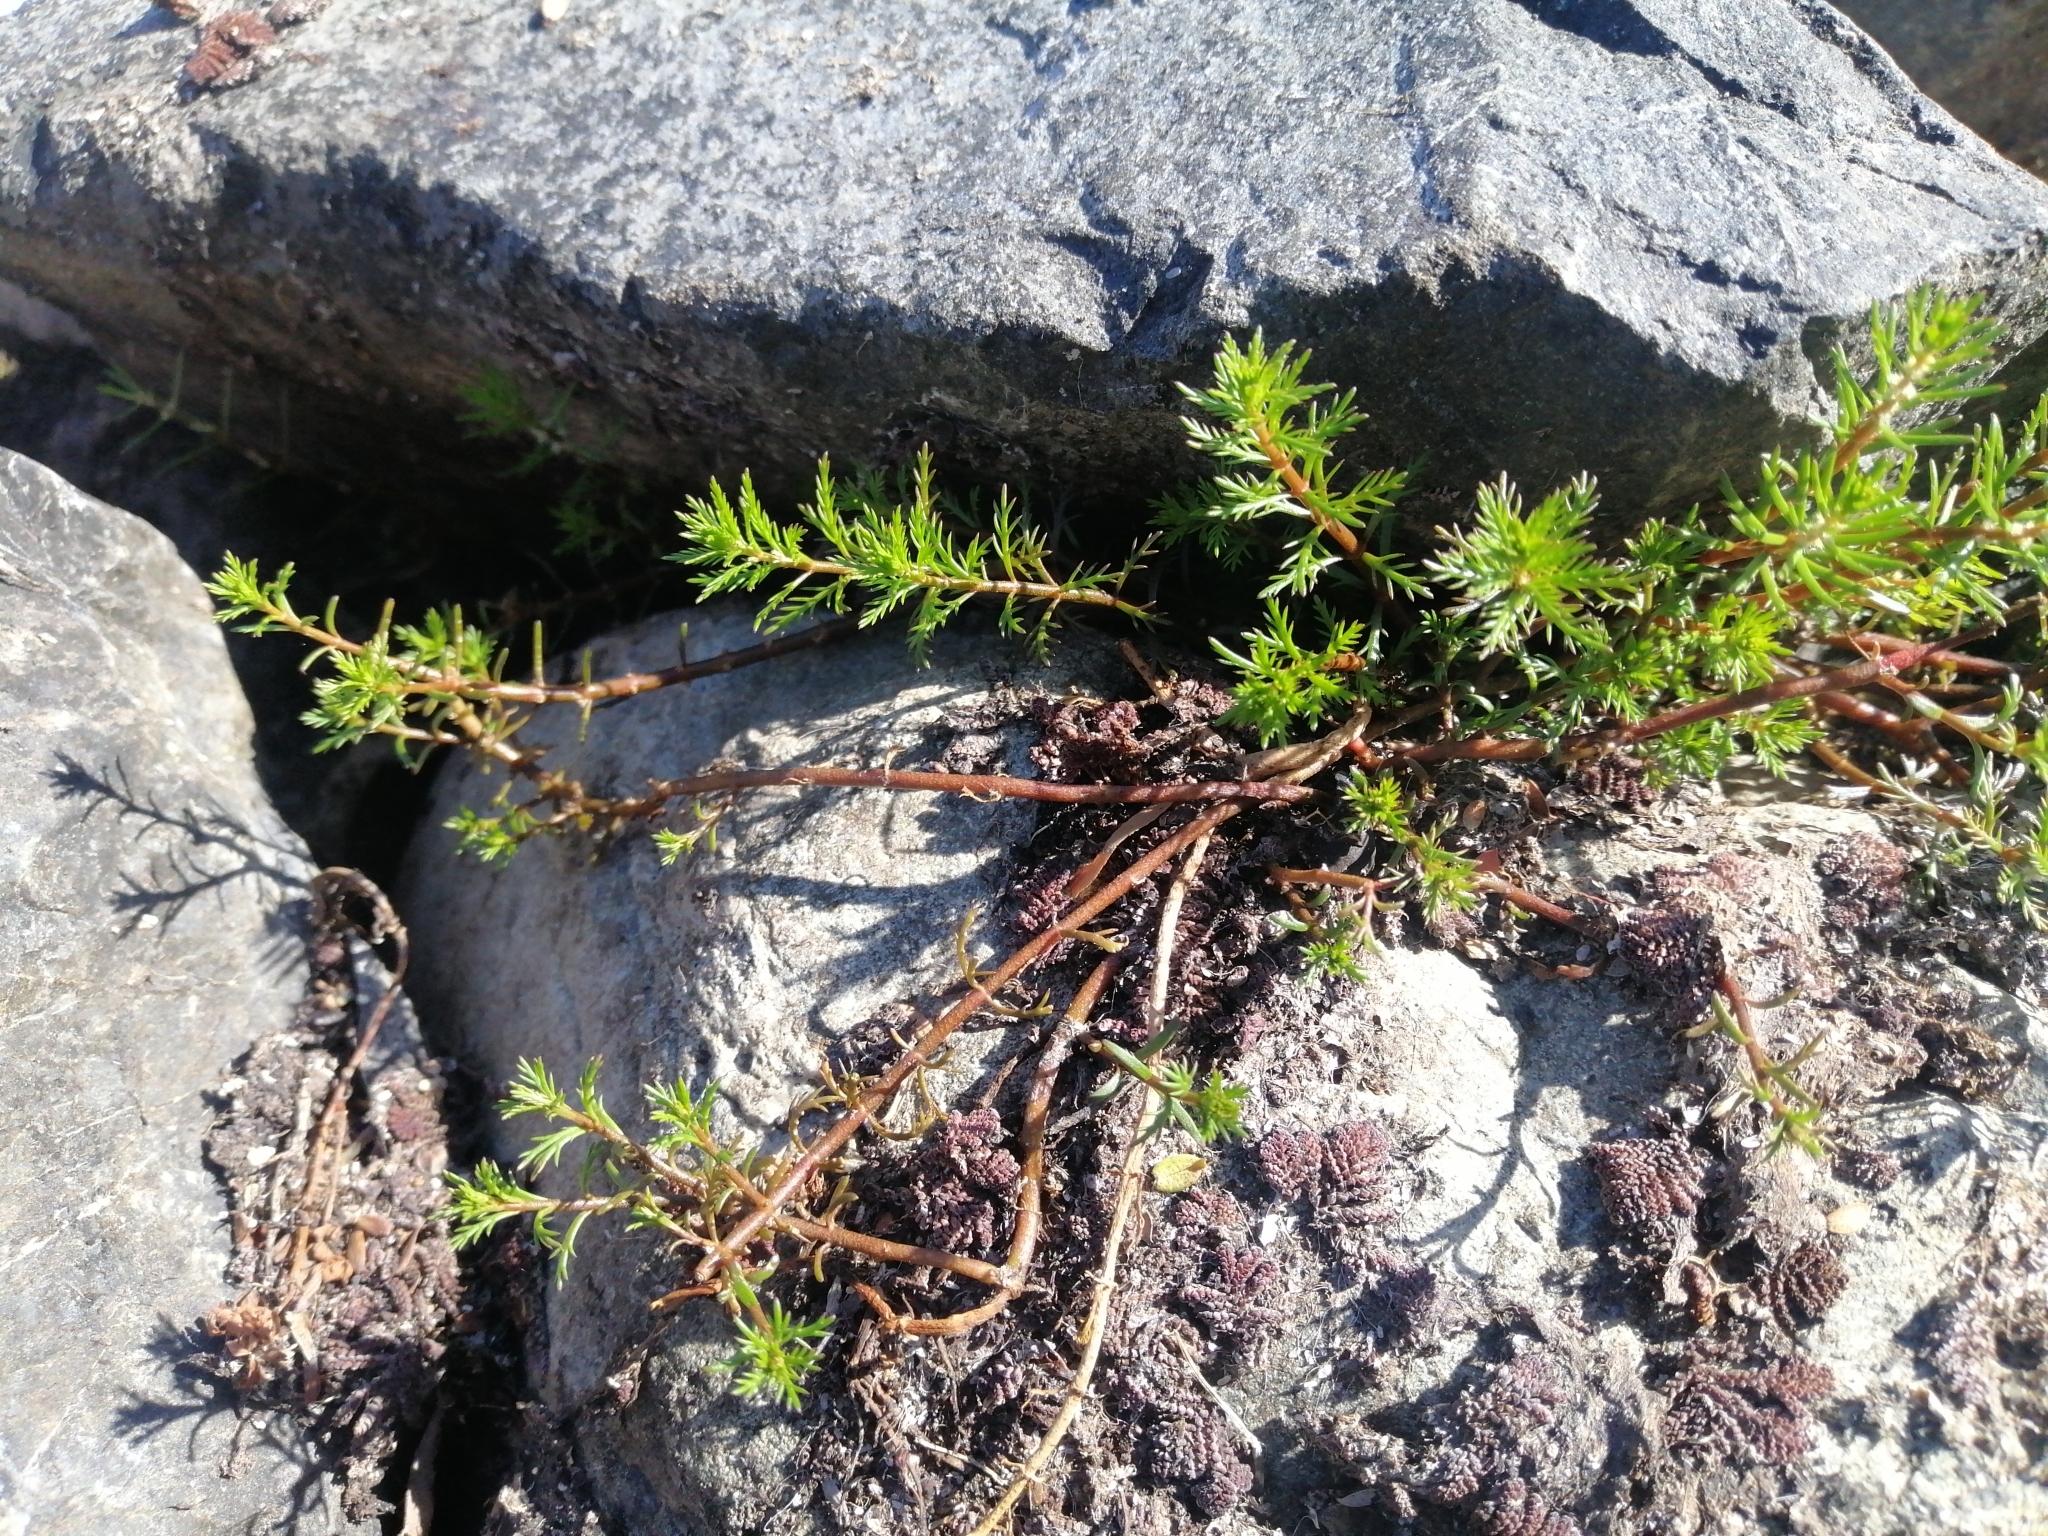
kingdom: Plantae
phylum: Tracheophyta
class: Magnoliopsida
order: Saxifragales
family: Haloragaceae
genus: Myriophyllum
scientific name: Myriophyllum propinquum
